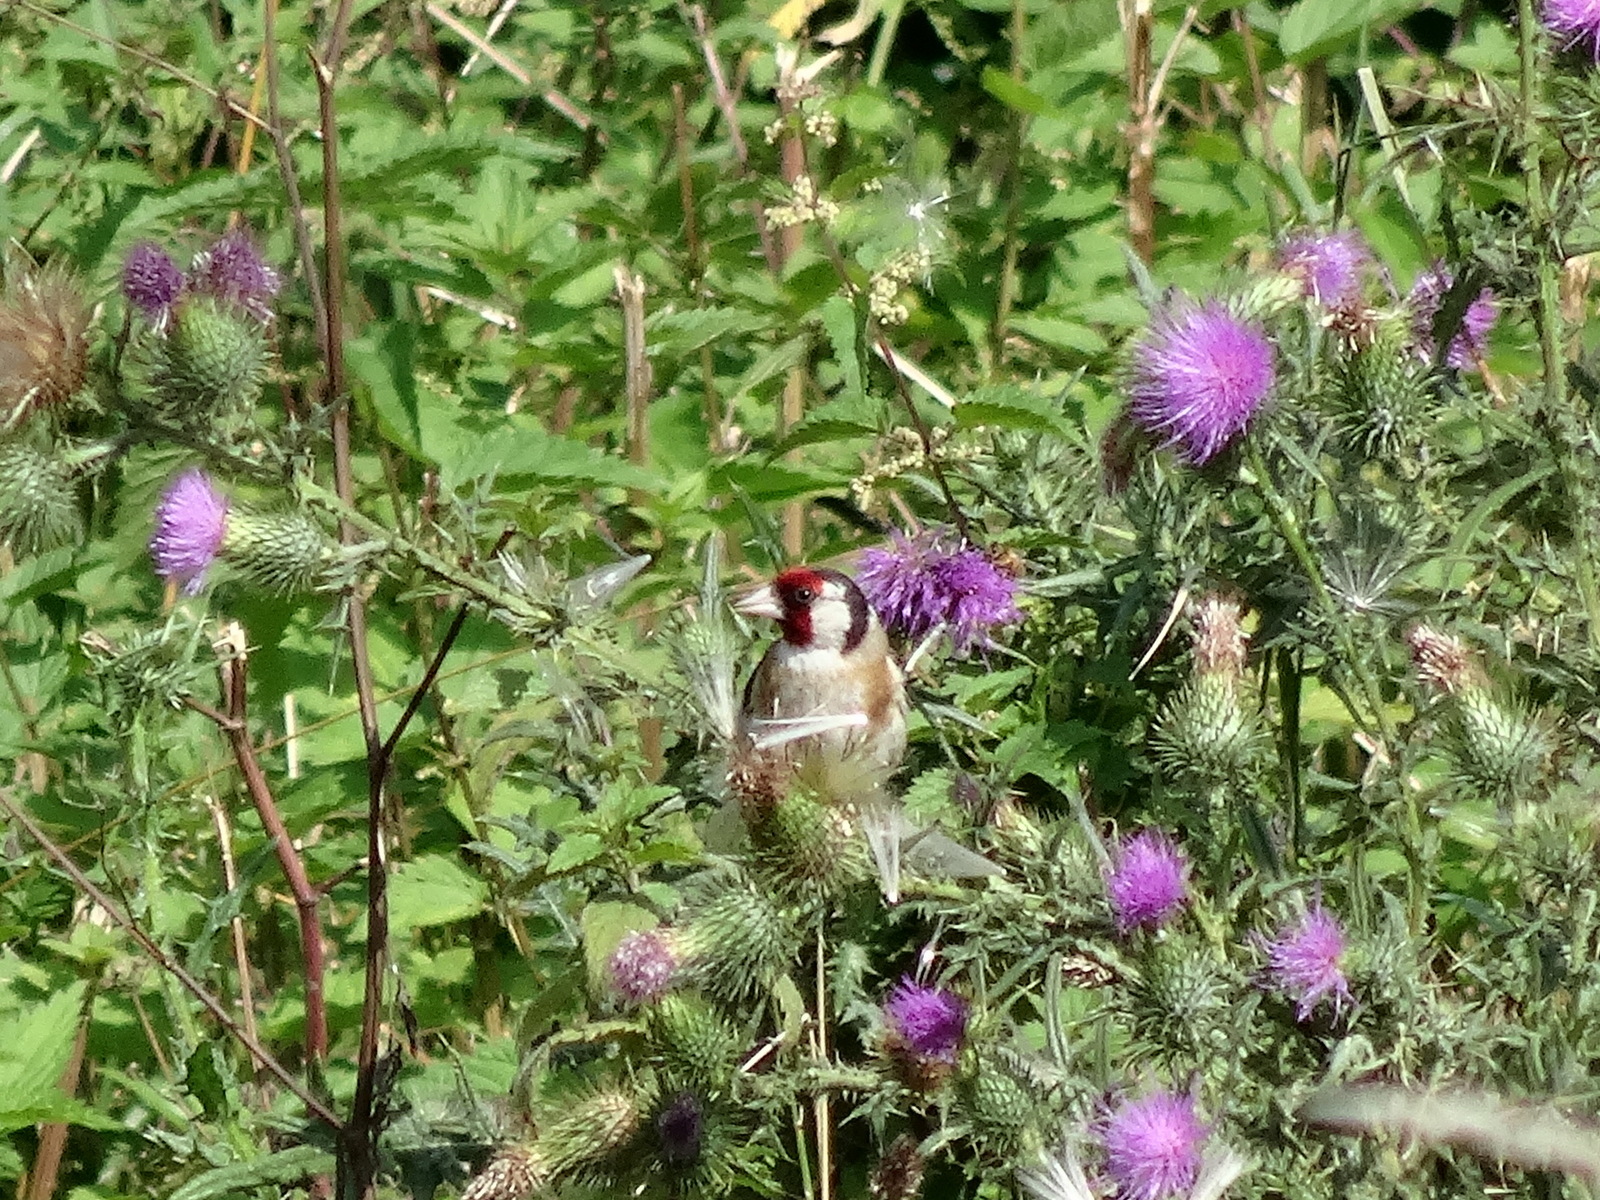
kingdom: Animalia
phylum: Chordata
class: Aves
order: Passeriformes
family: Fringillidae
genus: Carduelis
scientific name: Carduelis carduelis
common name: European goldfinch
